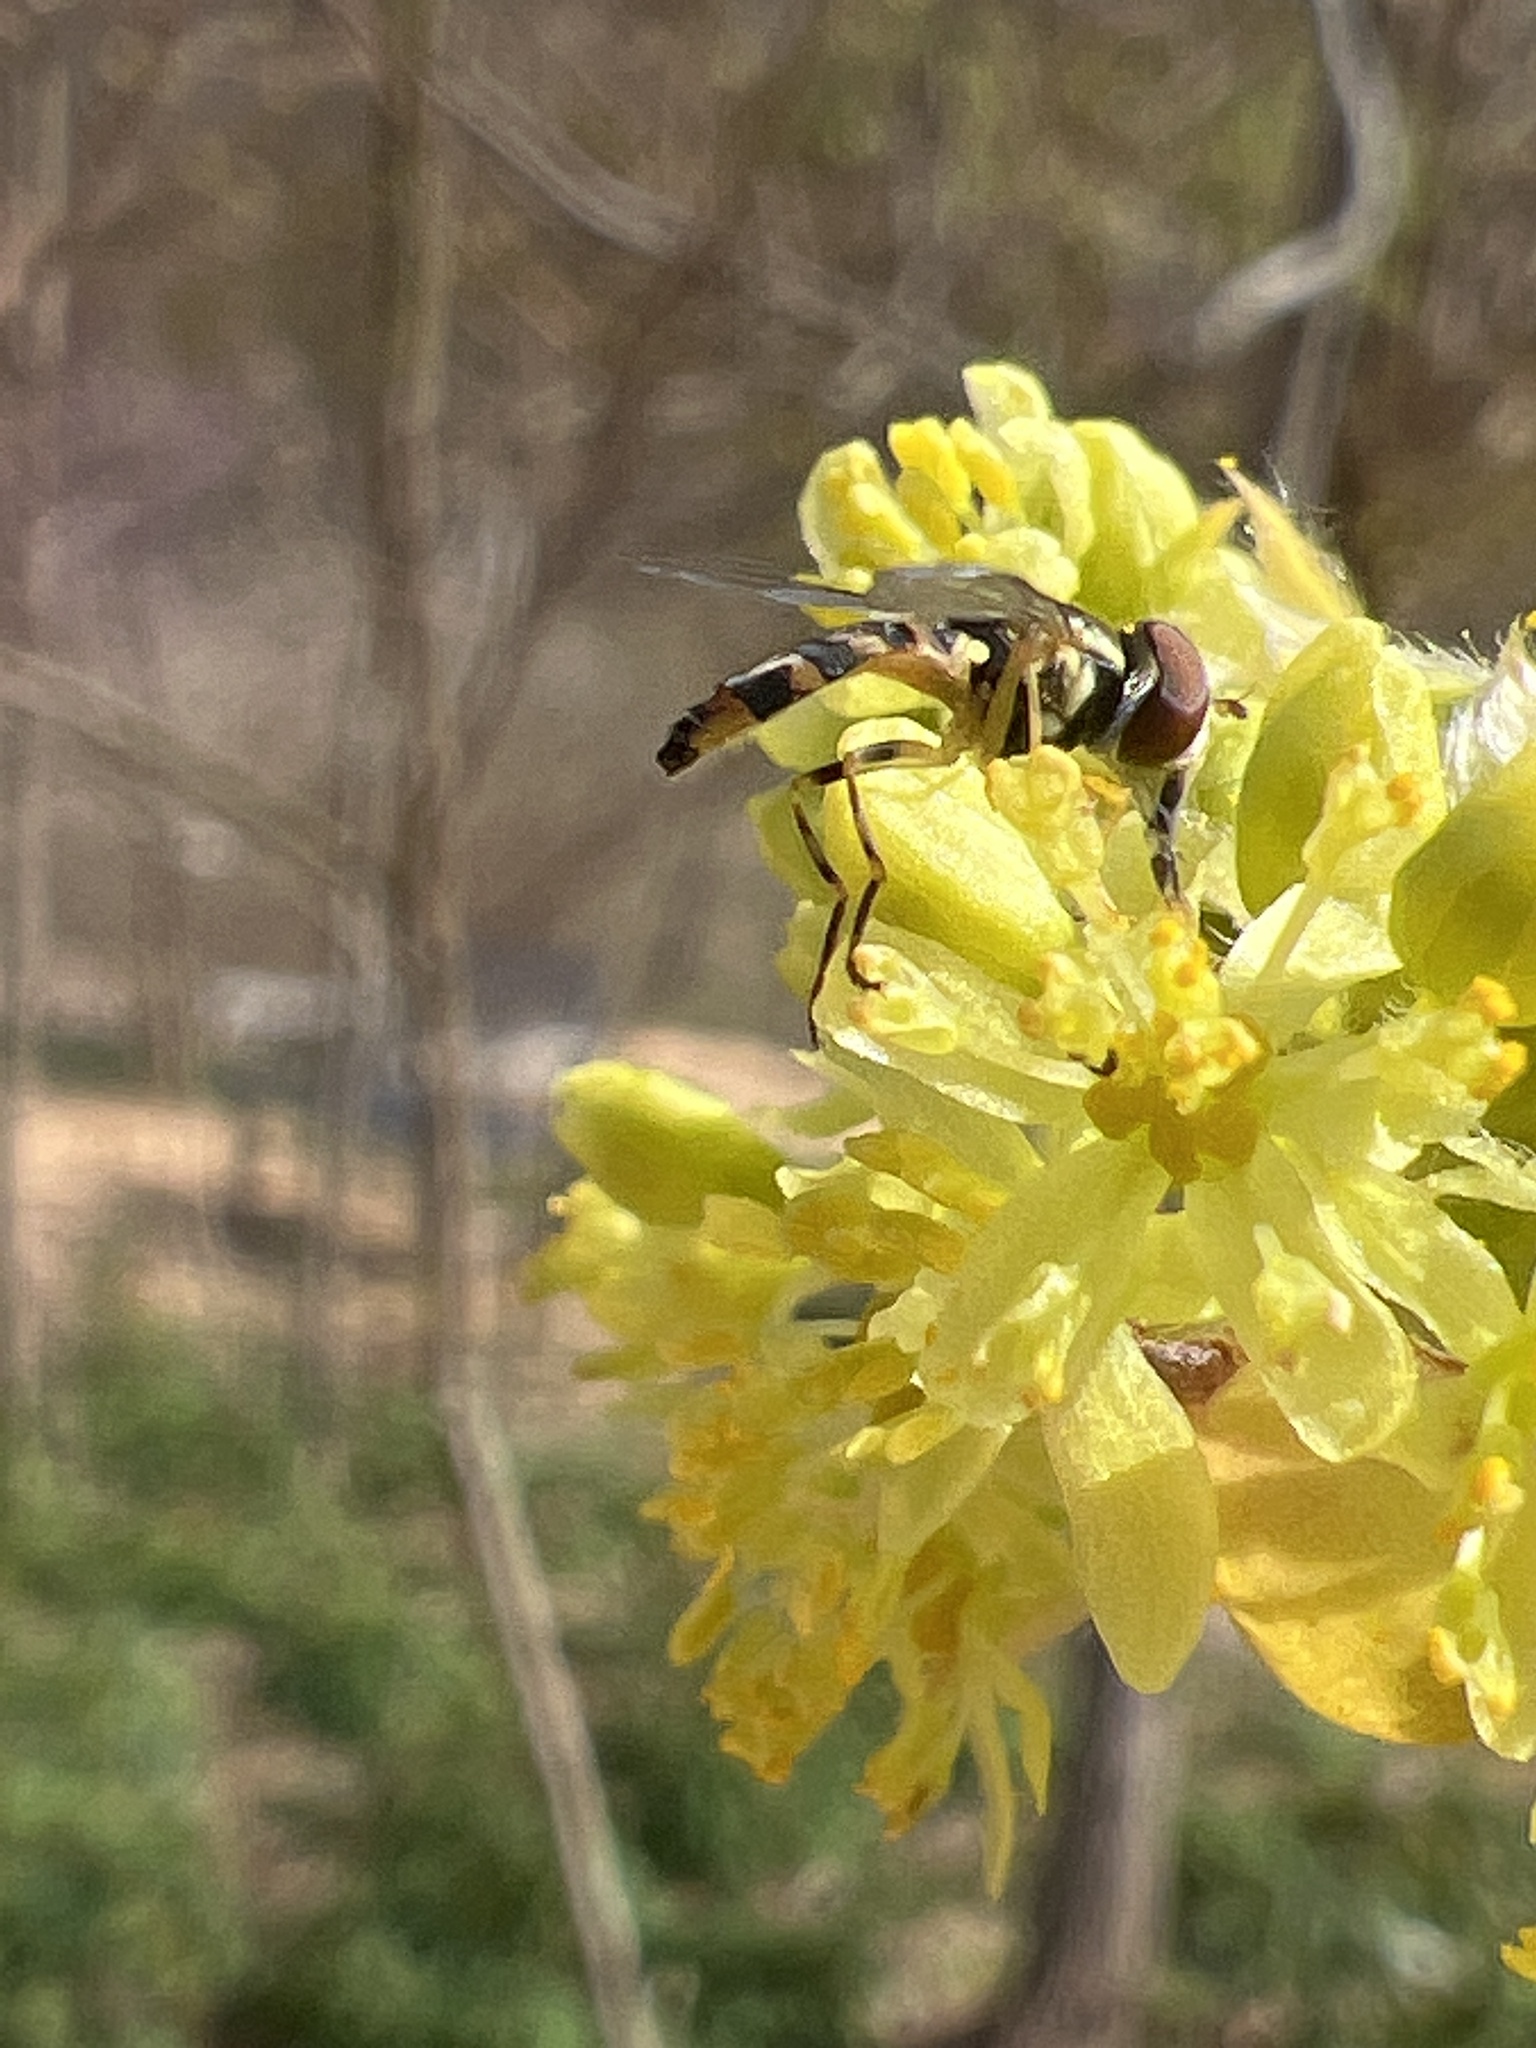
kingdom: Animalia
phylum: Arthropoda
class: Insecta
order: Diptera
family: Syrphidae
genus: Toxomerus
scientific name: Toxomerus geminatus
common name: Eastern calligrapher
